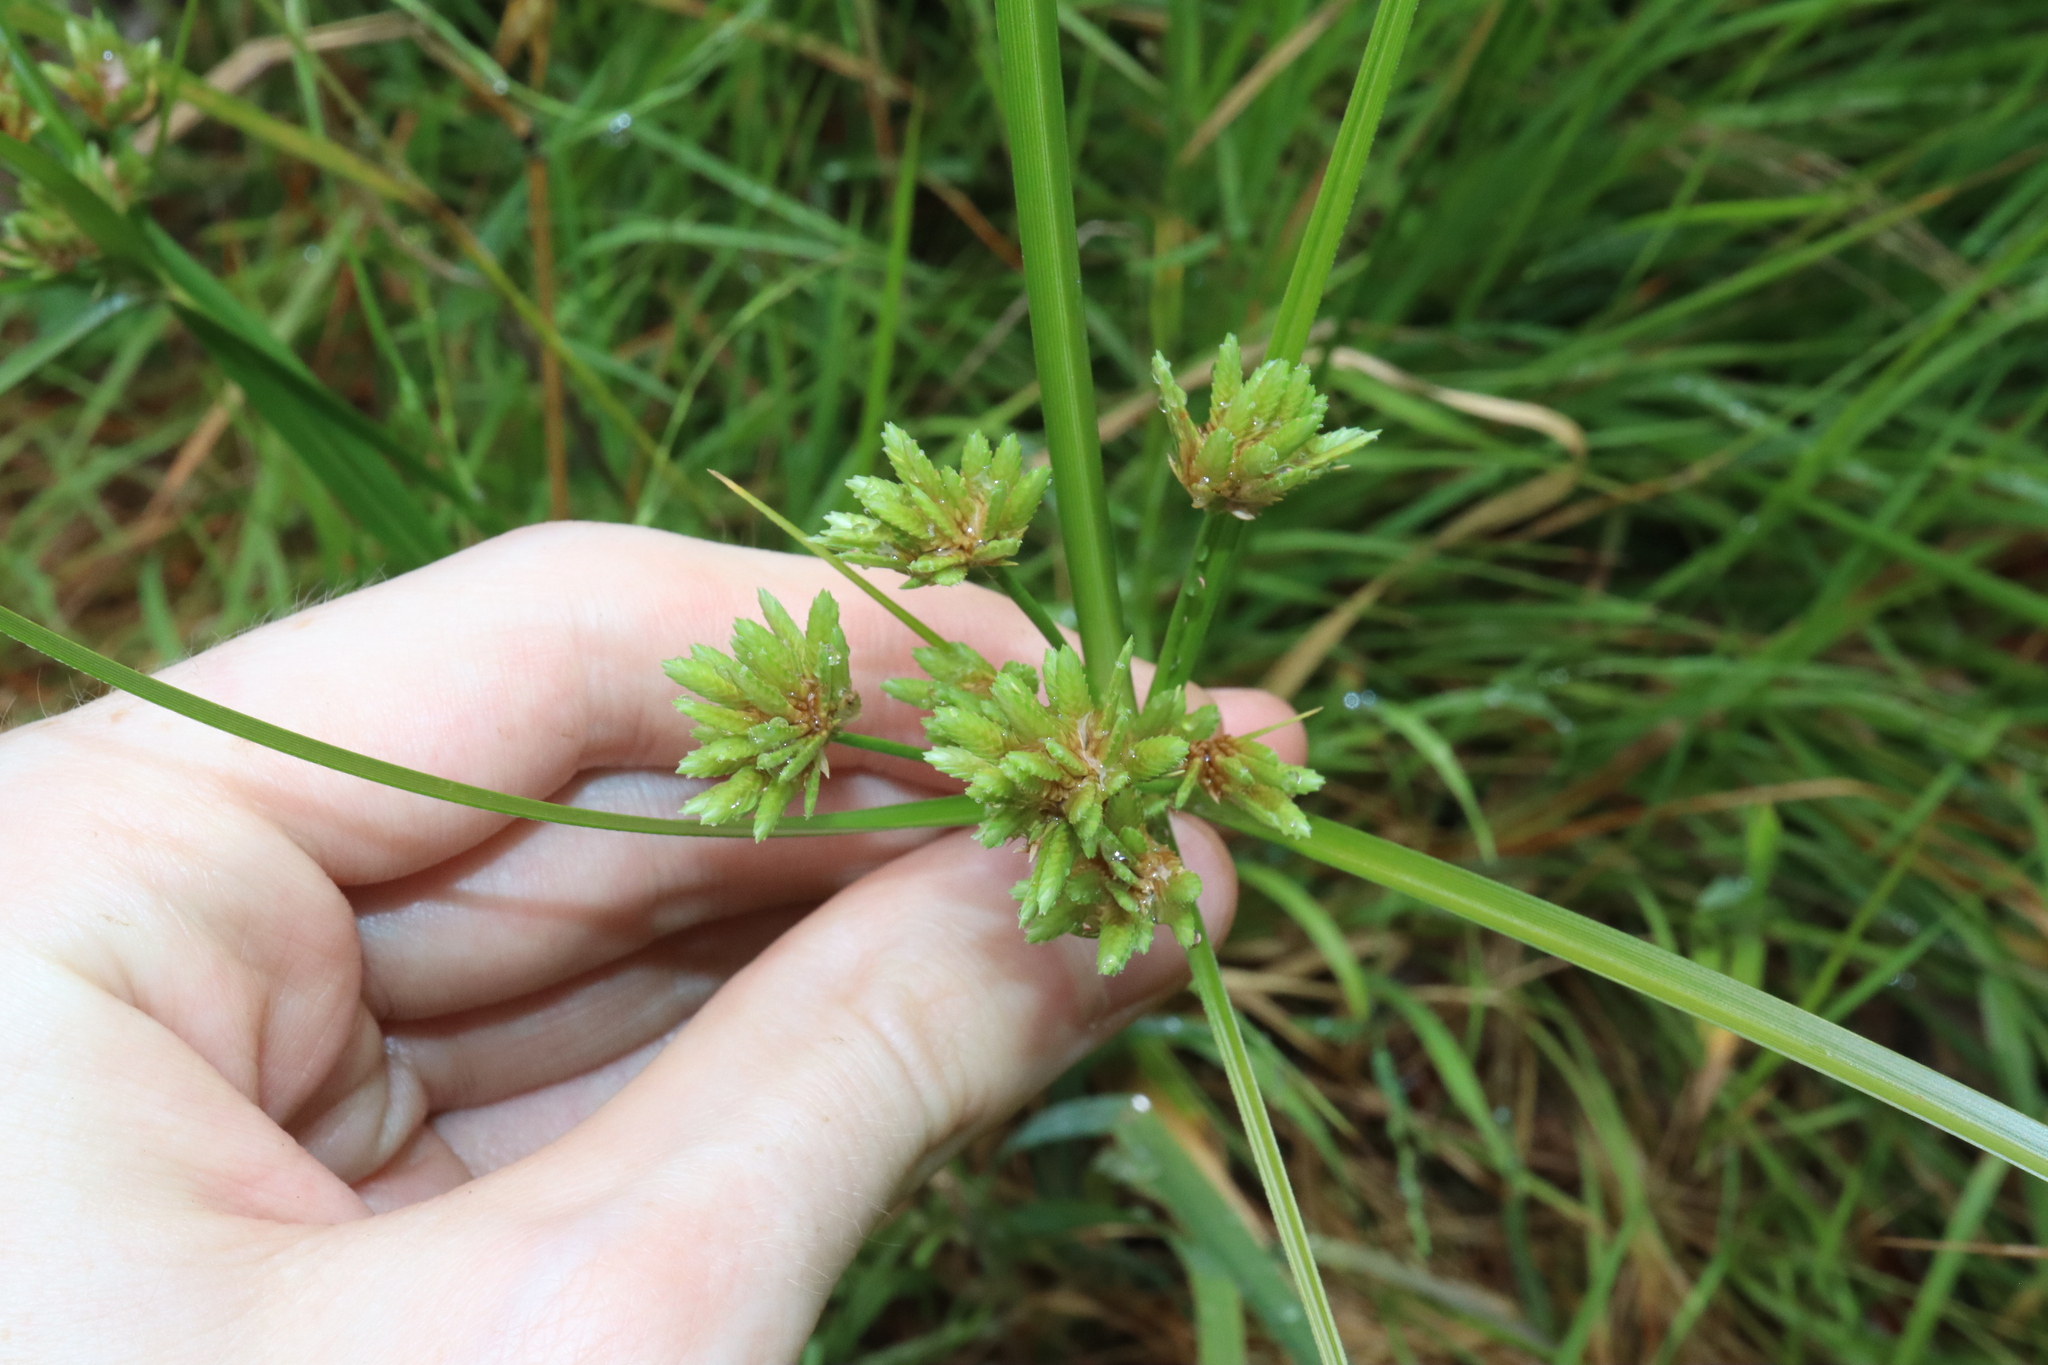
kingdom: Plantae
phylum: Tracheophyta
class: Liliopsida
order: Poales
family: Cyperaceae
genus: Cyperus
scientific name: Cyperus eragrostis
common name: Tall flatsedge
